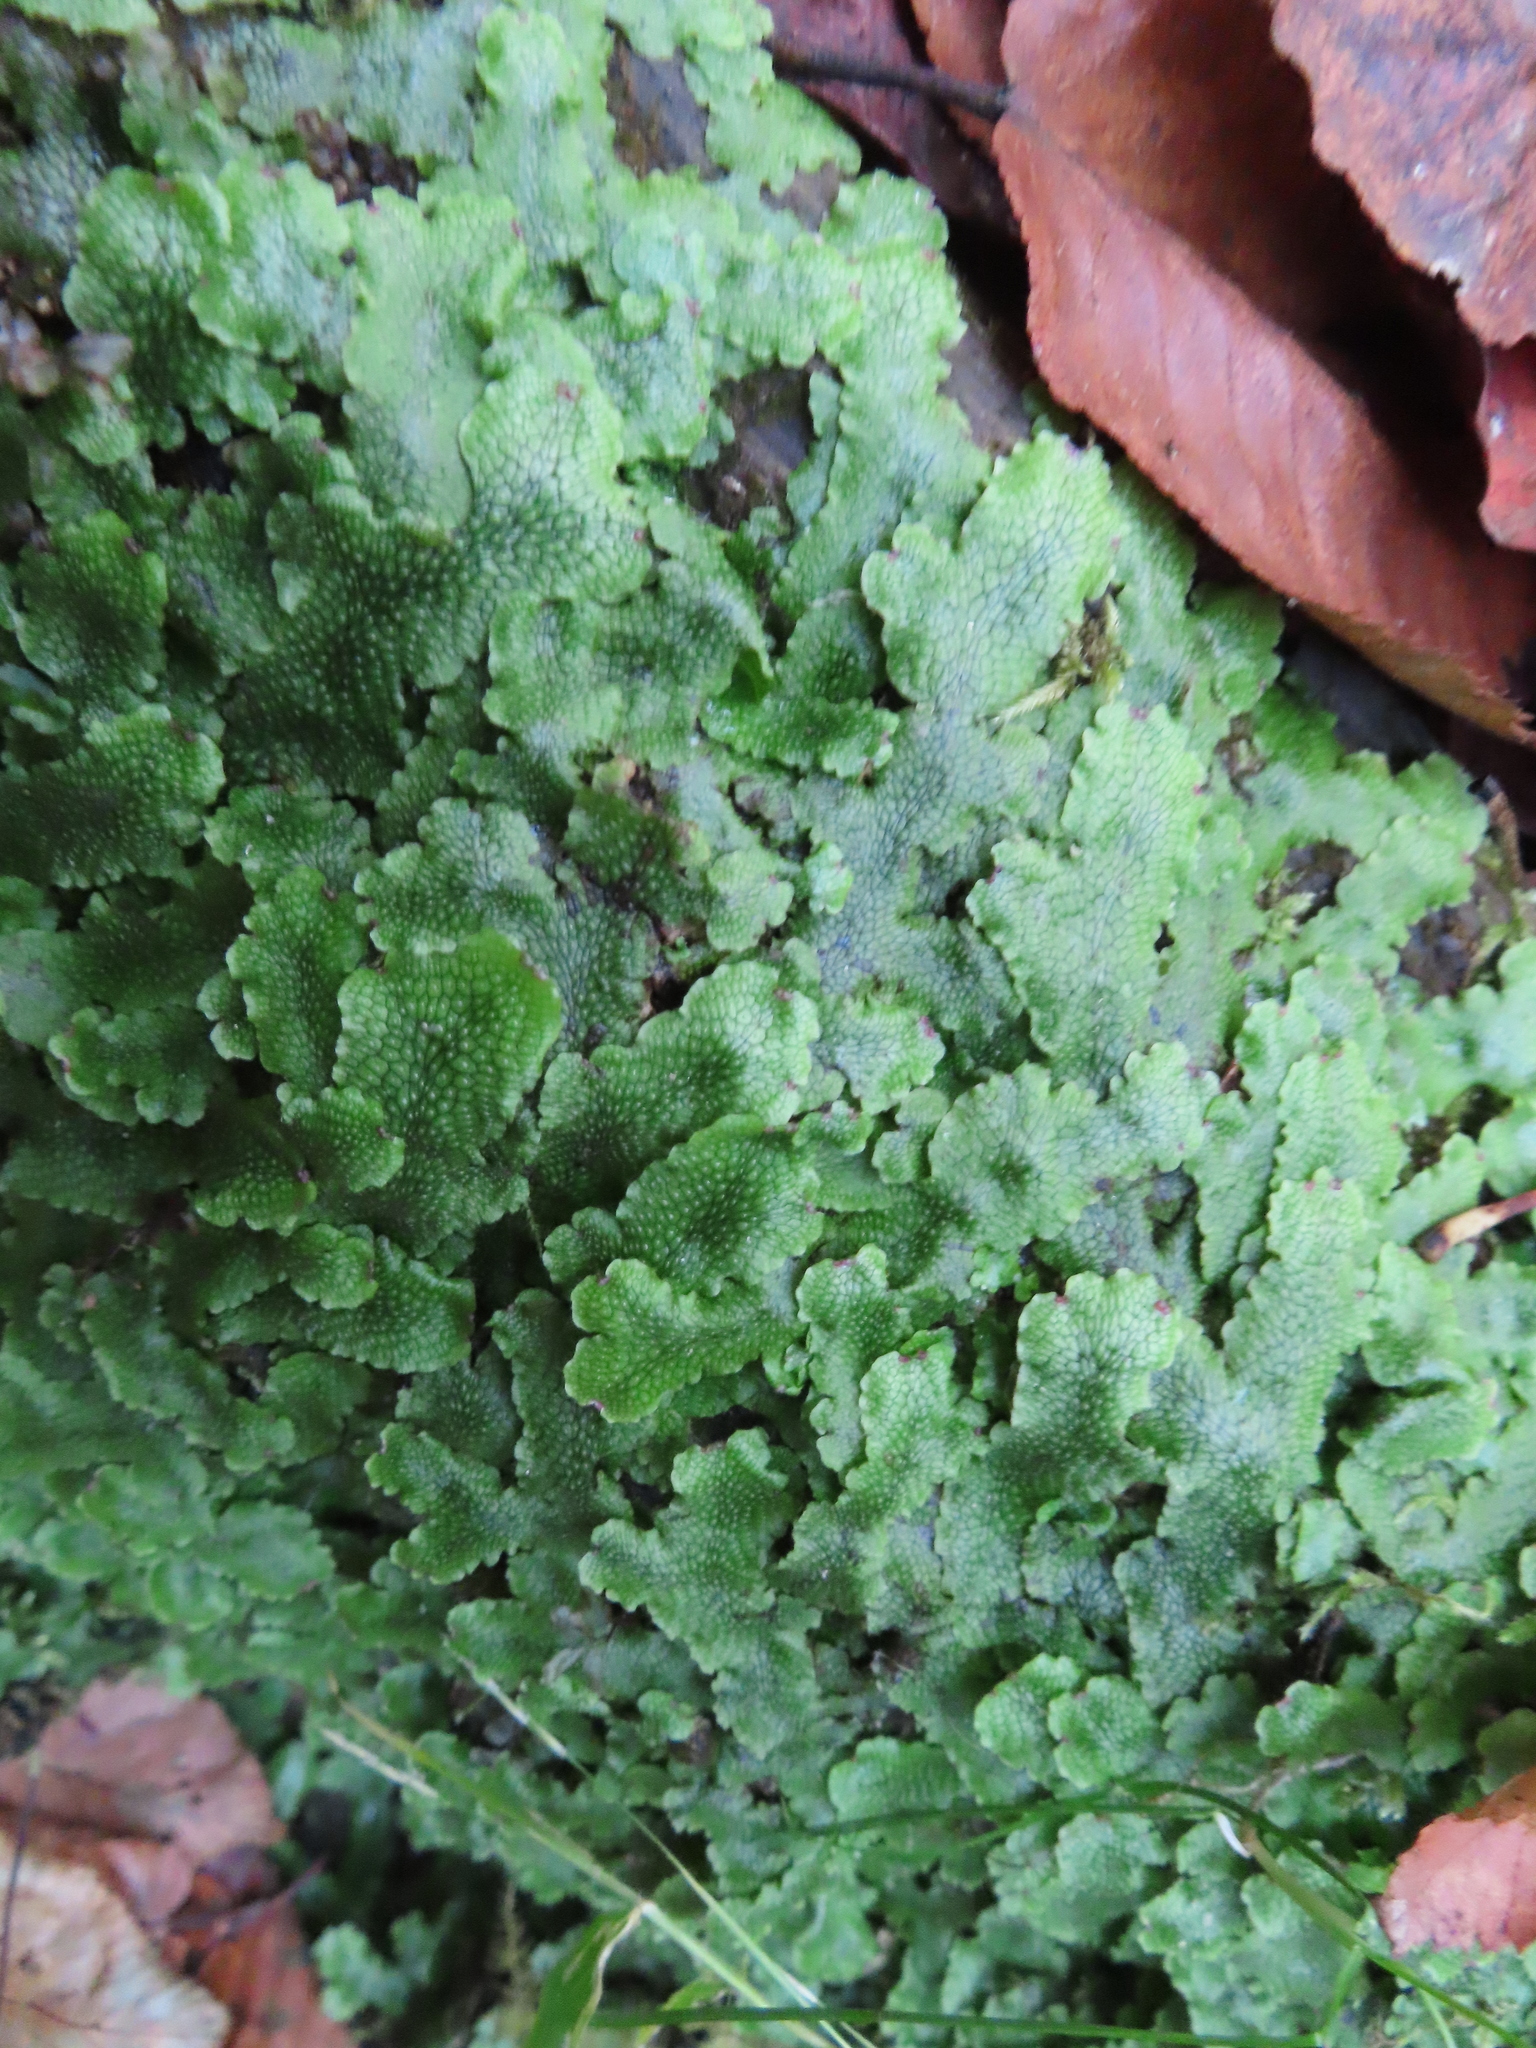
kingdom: Plantae
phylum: Marchantiophyta
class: Marchantiopsida
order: Marchantiales
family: Conocephalaceae
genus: Conocephalum
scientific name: Conocephalum salebrosum
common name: Cat-tongue liverwort
